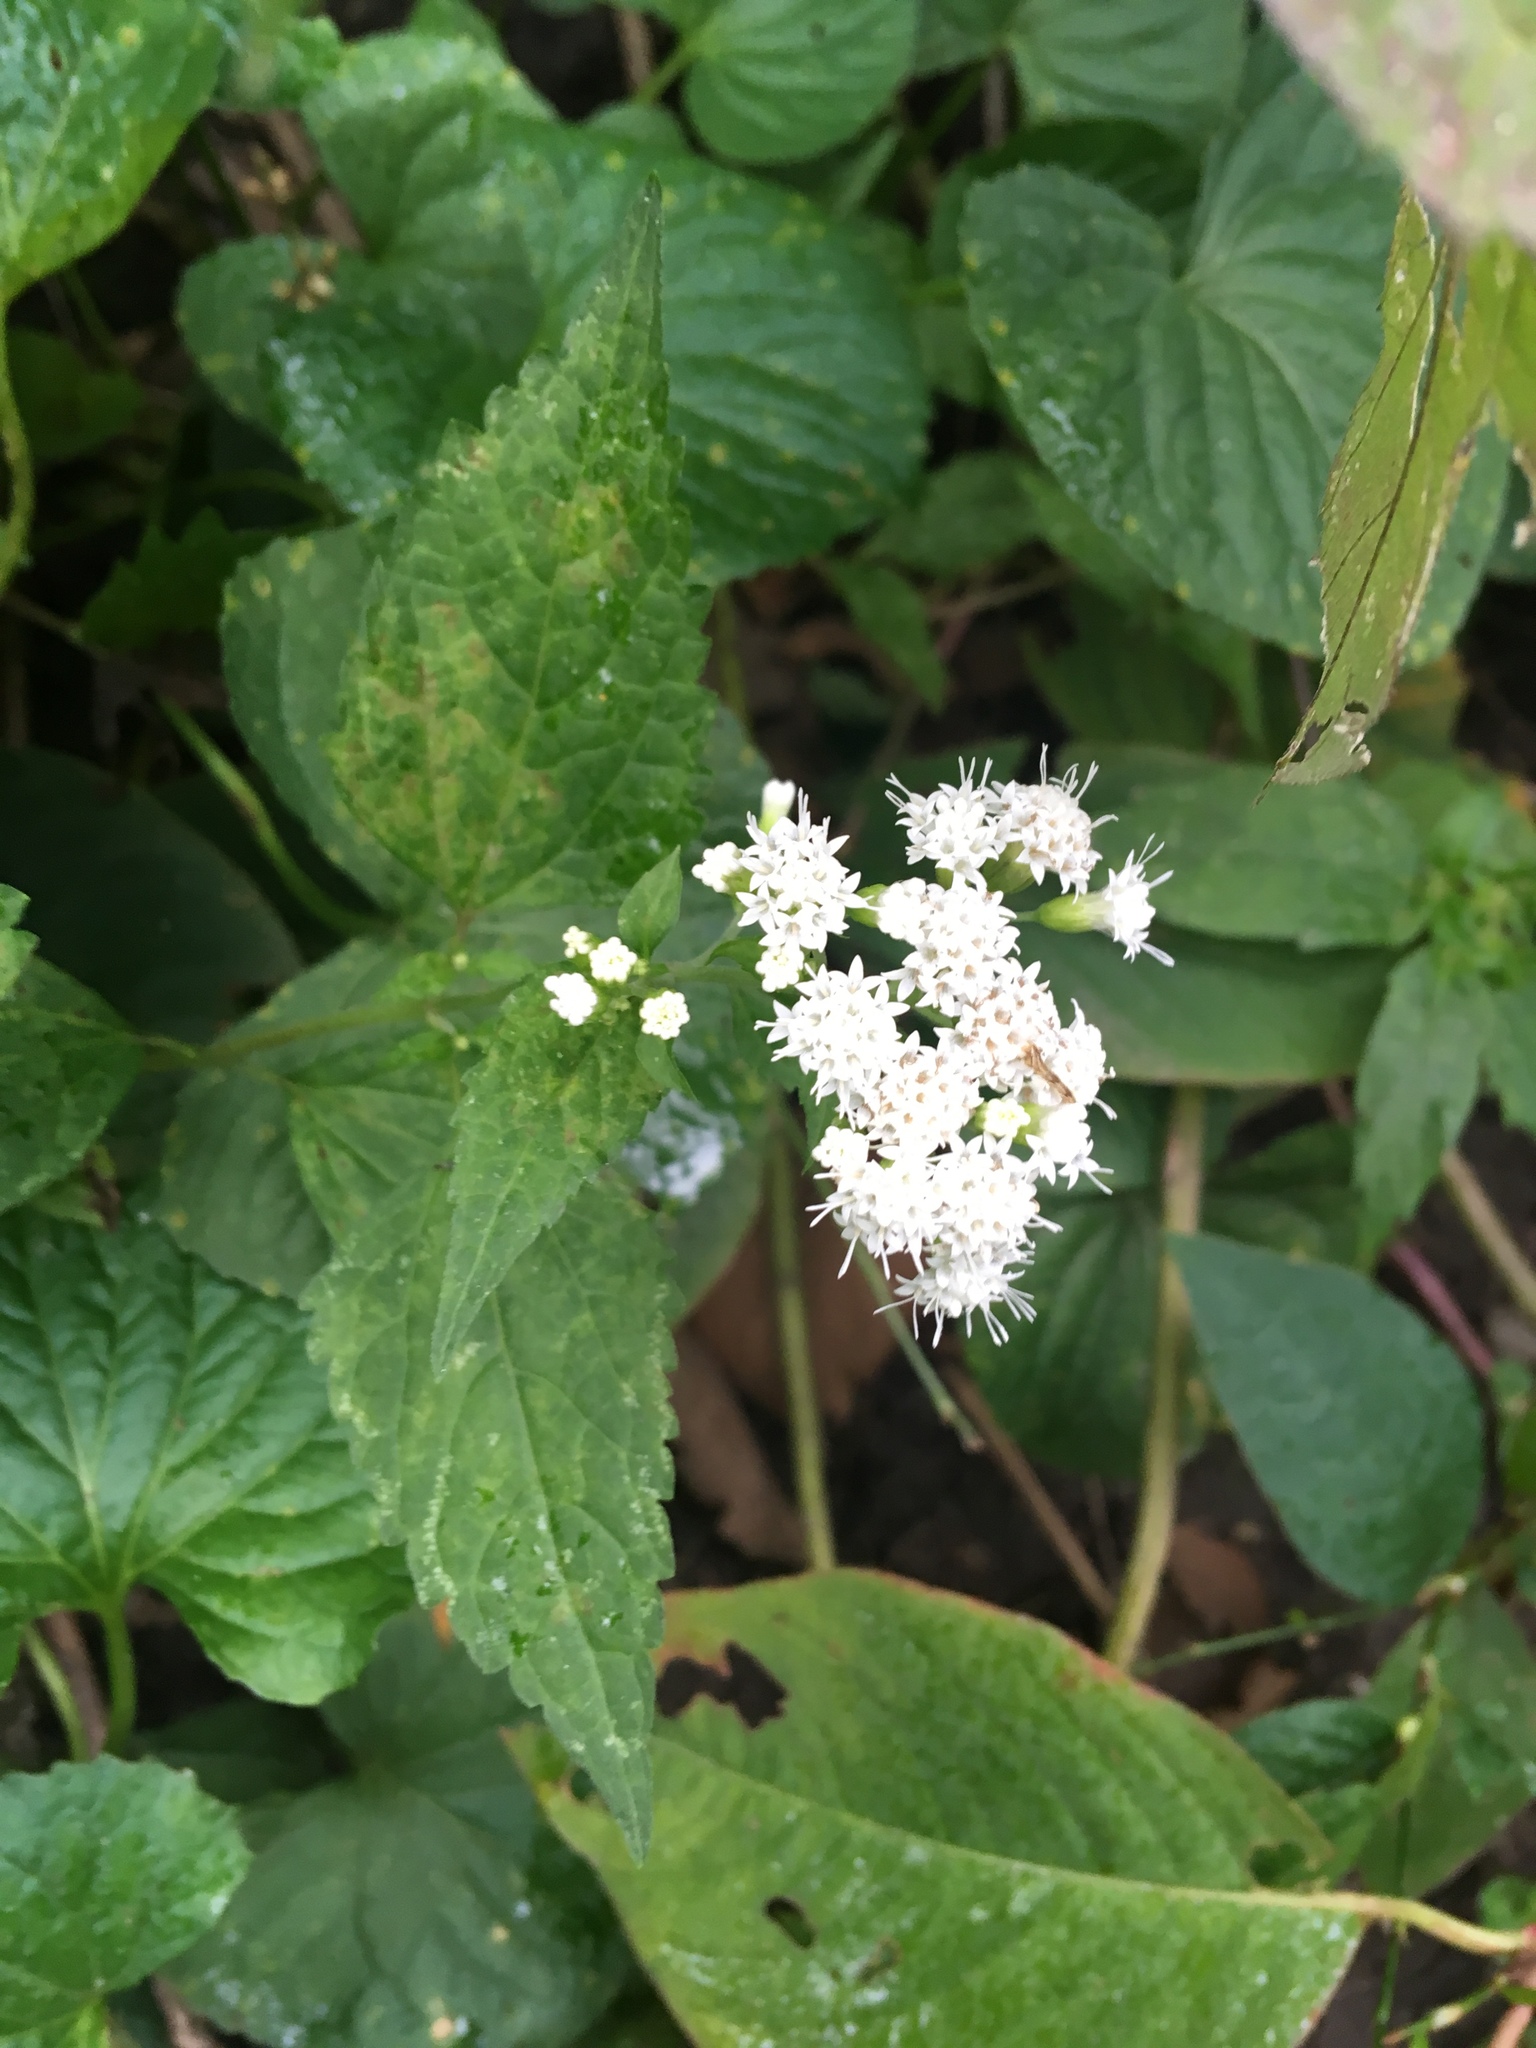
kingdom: Plantae
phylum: Tracheophyta
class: Magnoliopsida
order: Asterales
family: Asteraceae
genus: Ageratina
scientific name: Ageratina altissima
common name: White snakeroot
